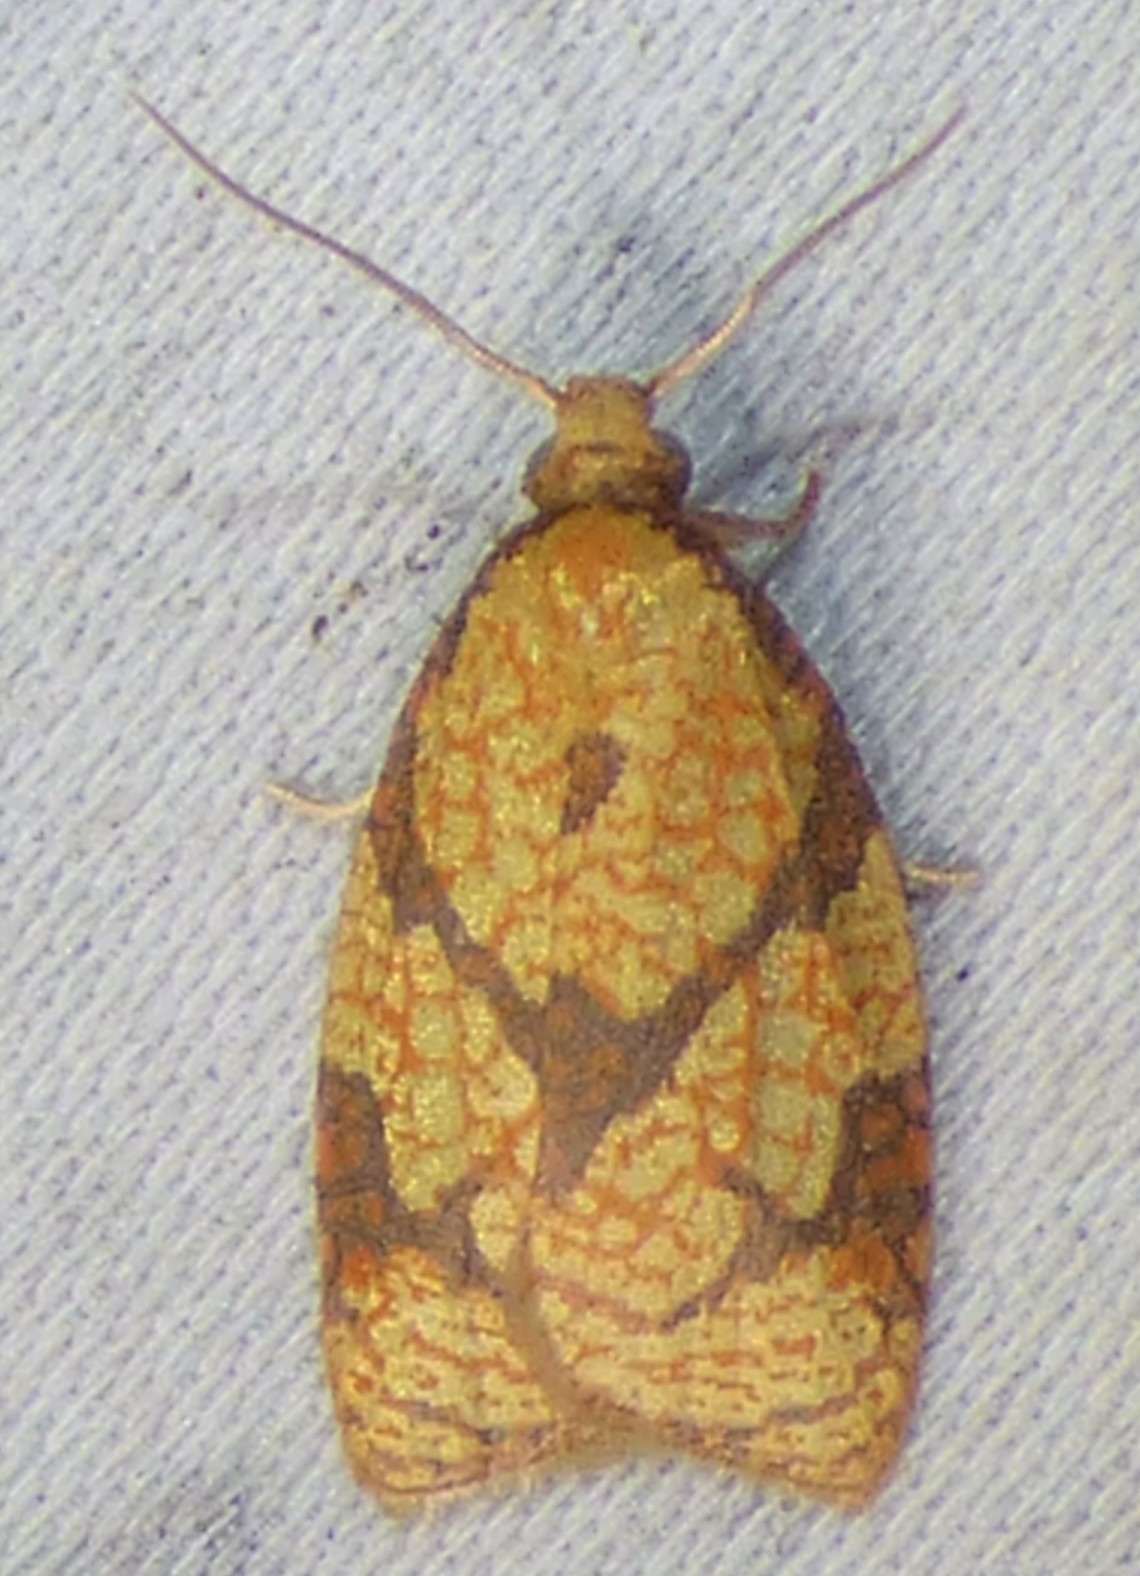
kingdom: Animalia
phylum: Arthropoda
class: Insecta
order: Lepidoptera
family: Tortricidae
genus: Cenopis
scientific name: Cenopis reticulatana
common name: Reticulated fruitworm moth
